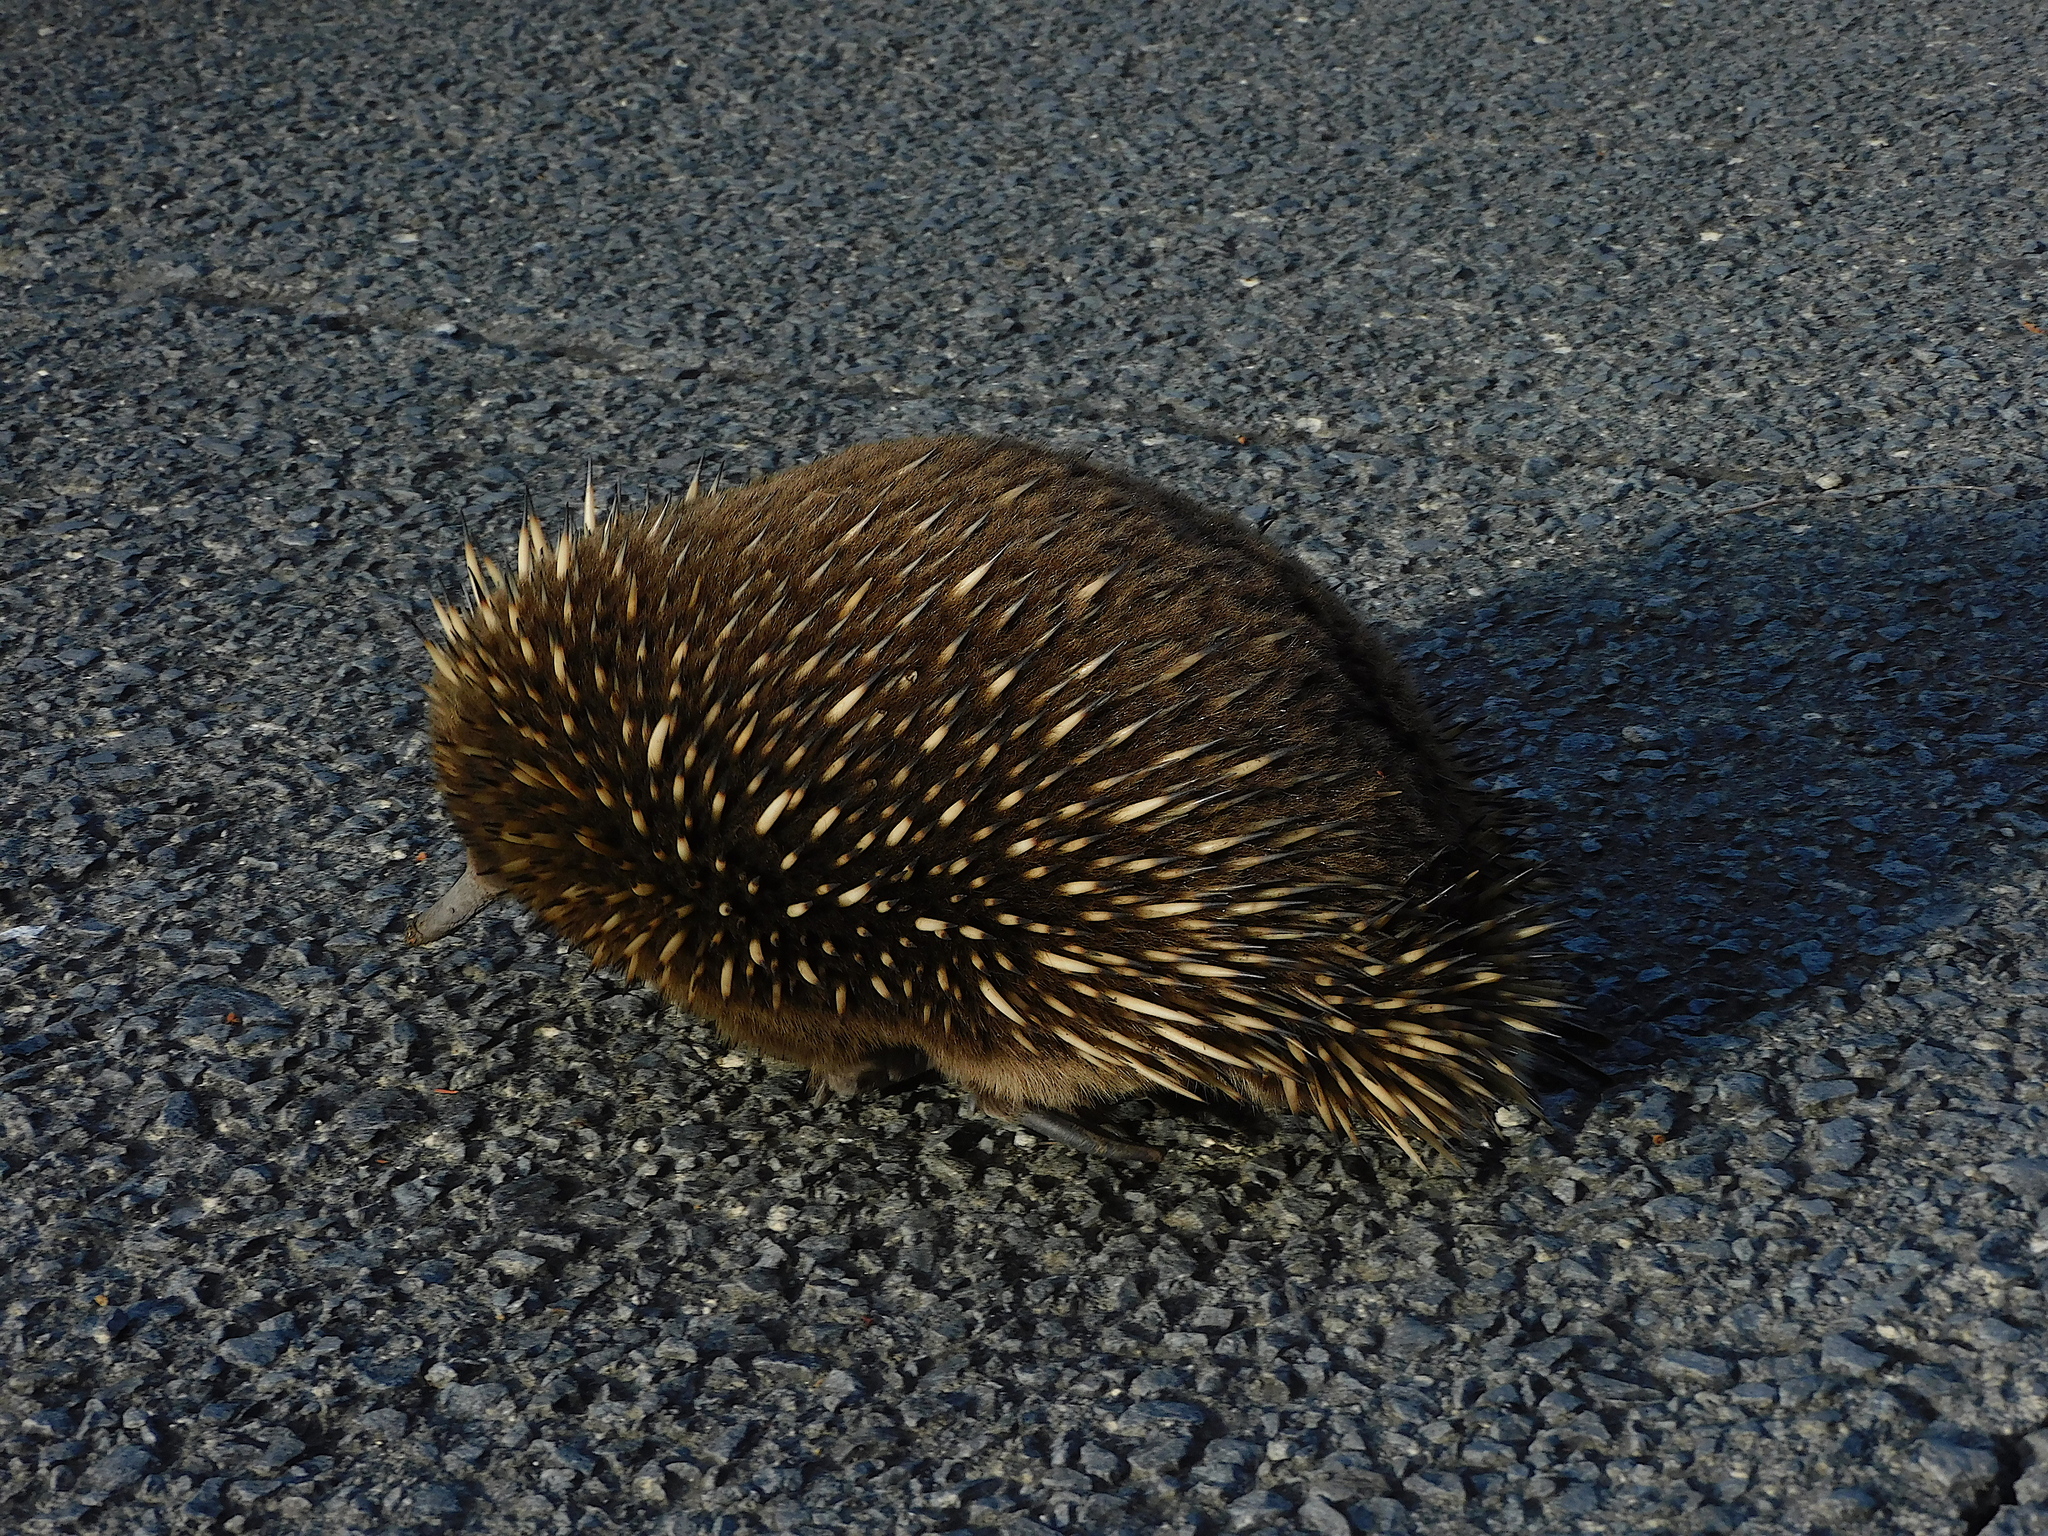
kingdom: Animalia
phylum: Chordata
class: Mammalia
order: Monotremata
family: Tachyglossidae
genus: Tachyglossus
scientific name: Tachyglossus aculeatus
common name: Short-beaked echidna
